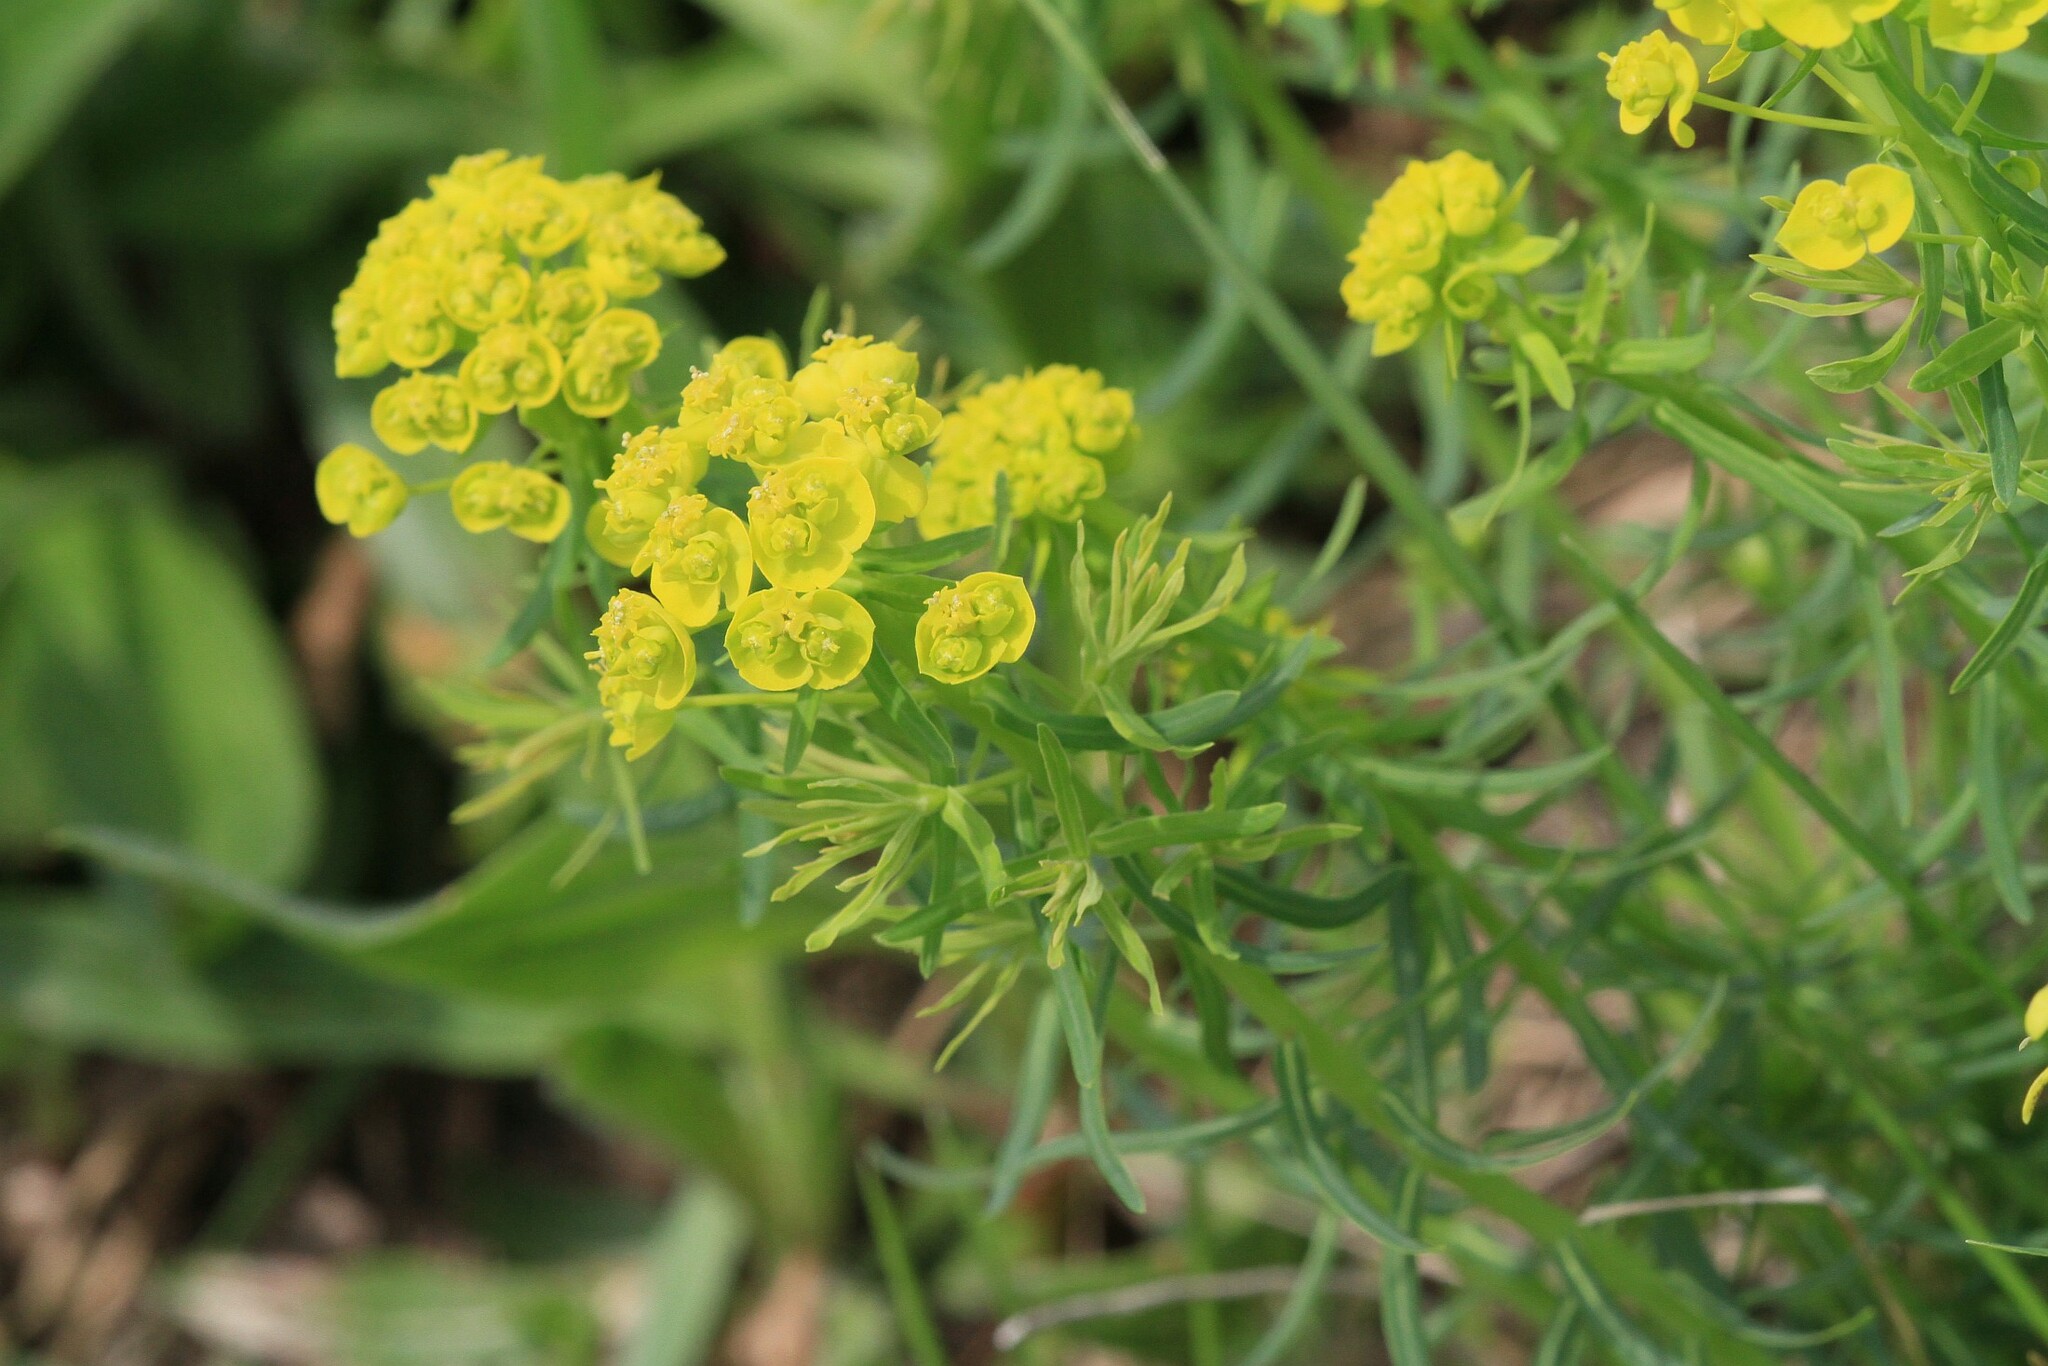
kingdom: Plantae
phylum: Tracheophyta
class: Magnoliopsida
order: Malpighiales
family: Euphorbiaceae
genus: Euphorbia
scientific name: Euphorbia cyparissias
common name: Cypress spurge
